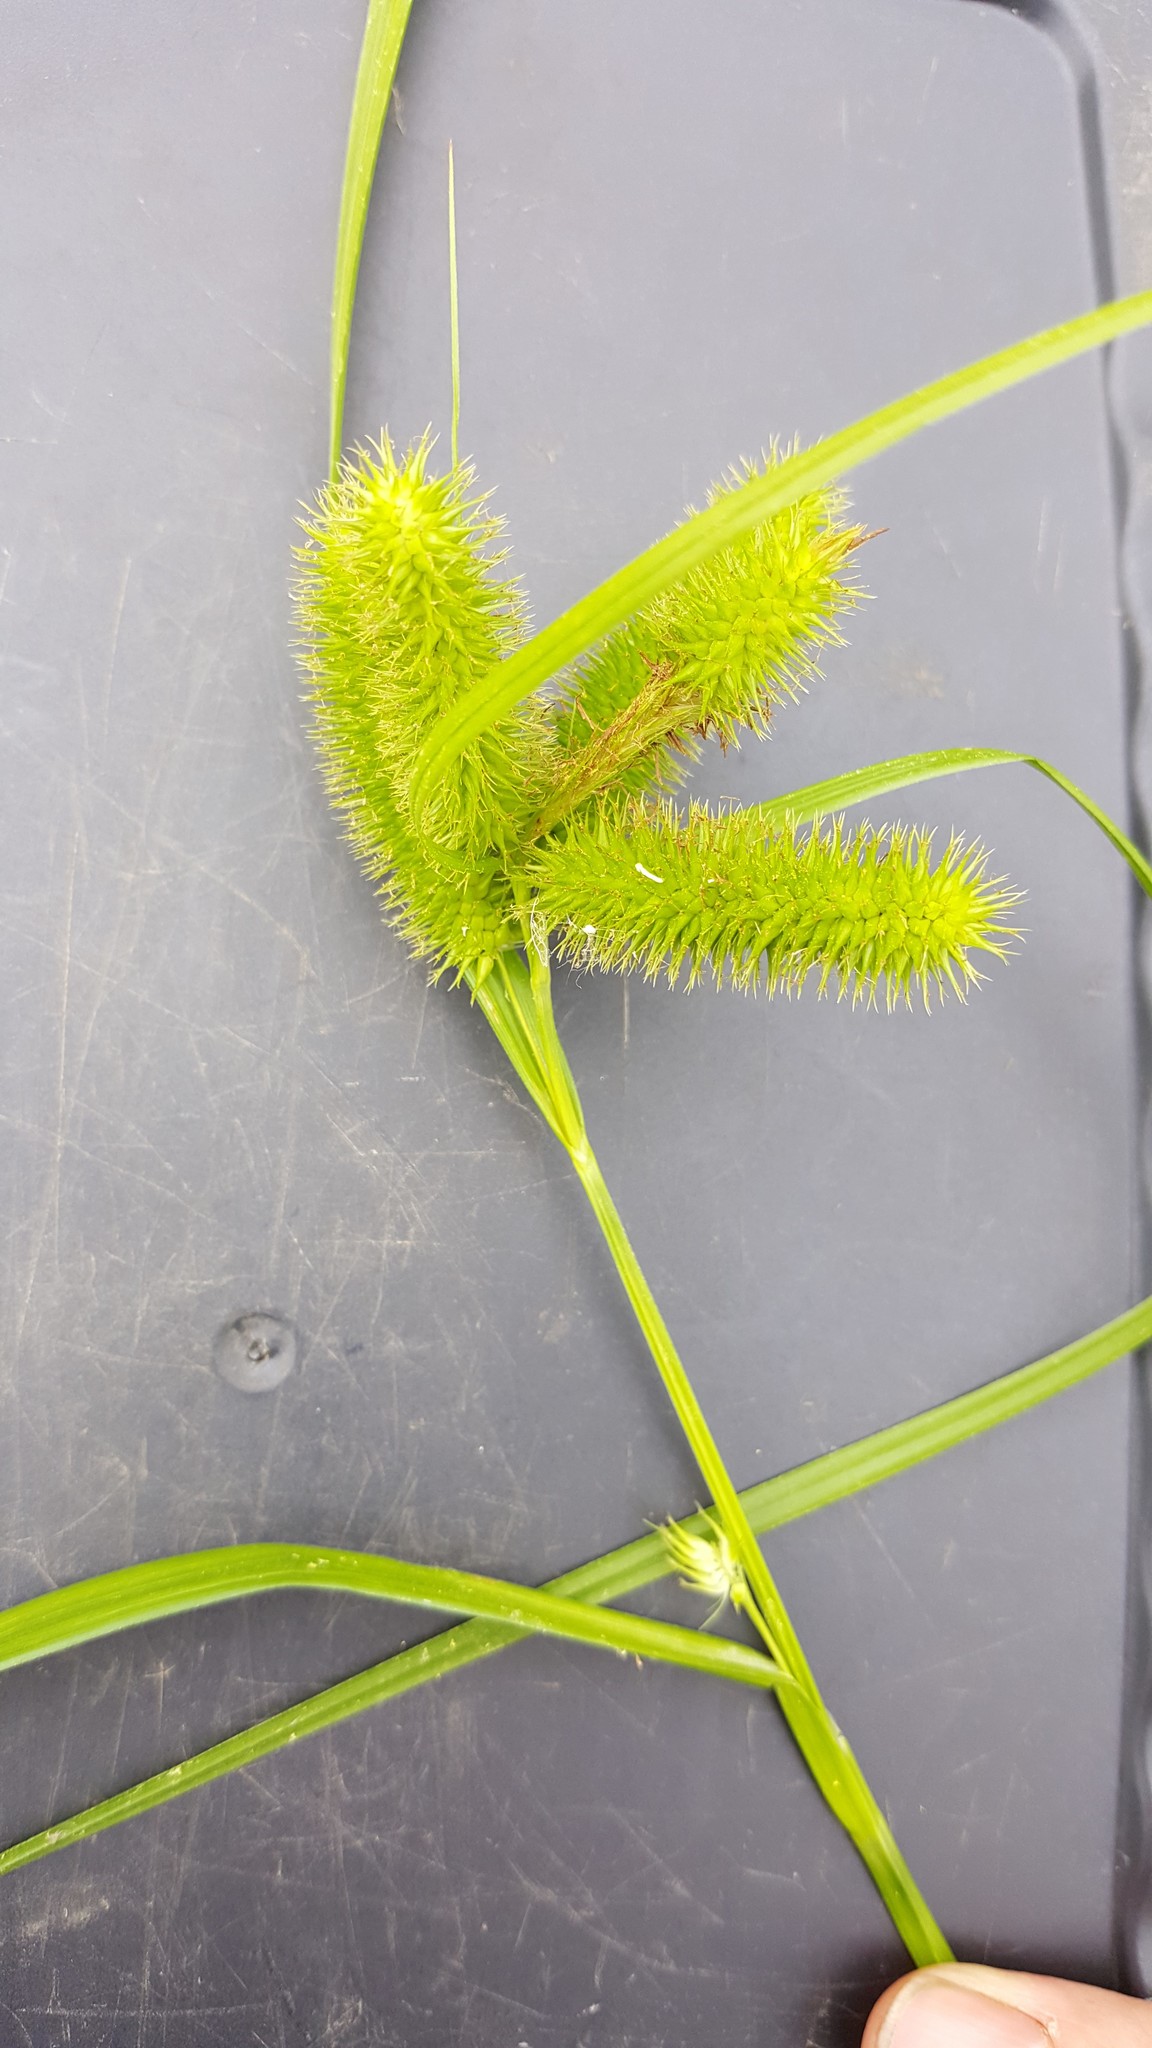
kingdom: Plantae
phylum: Tracheophyta
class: Liliopsida
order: Poales
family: Cyperaceae
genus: Carex
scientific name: Carex comosa
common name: Bristly sedge
